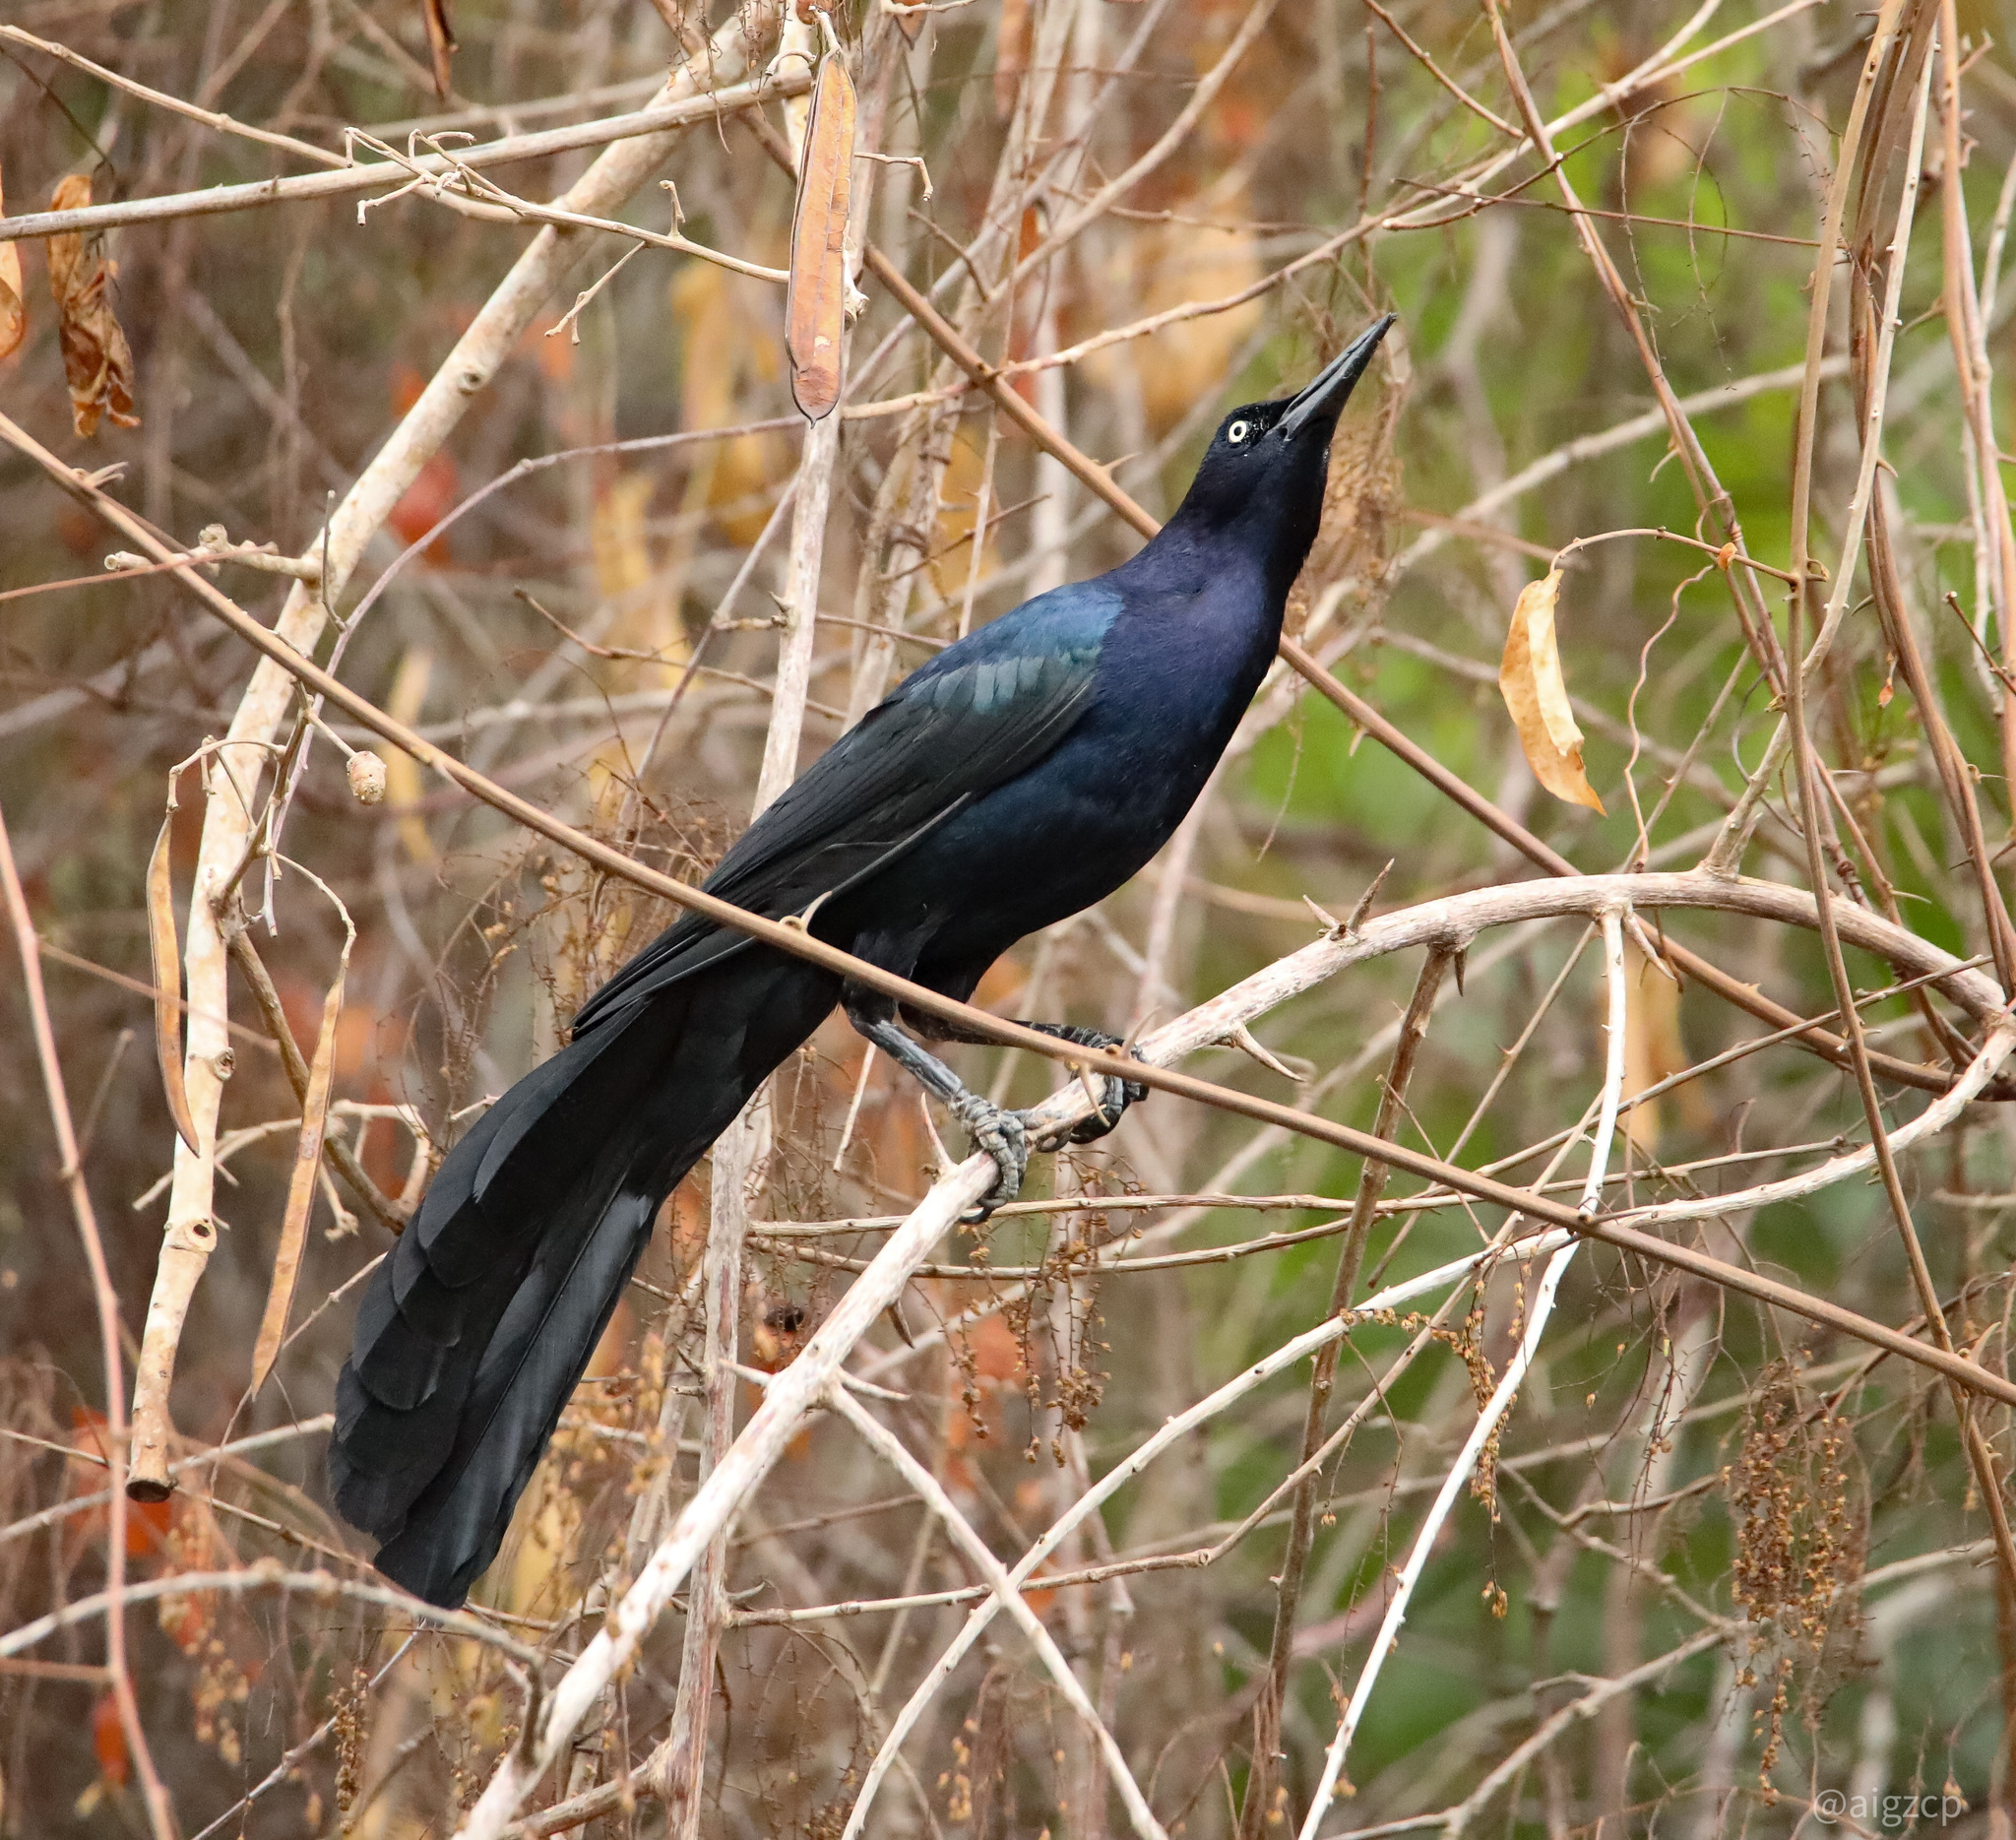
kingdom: Animalia
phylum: Chordata
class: Aves
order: Passeriformes
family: Icteridae
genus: Quiscalus
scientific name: Quiscalus mexicanus
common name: Great-tailed grackle
